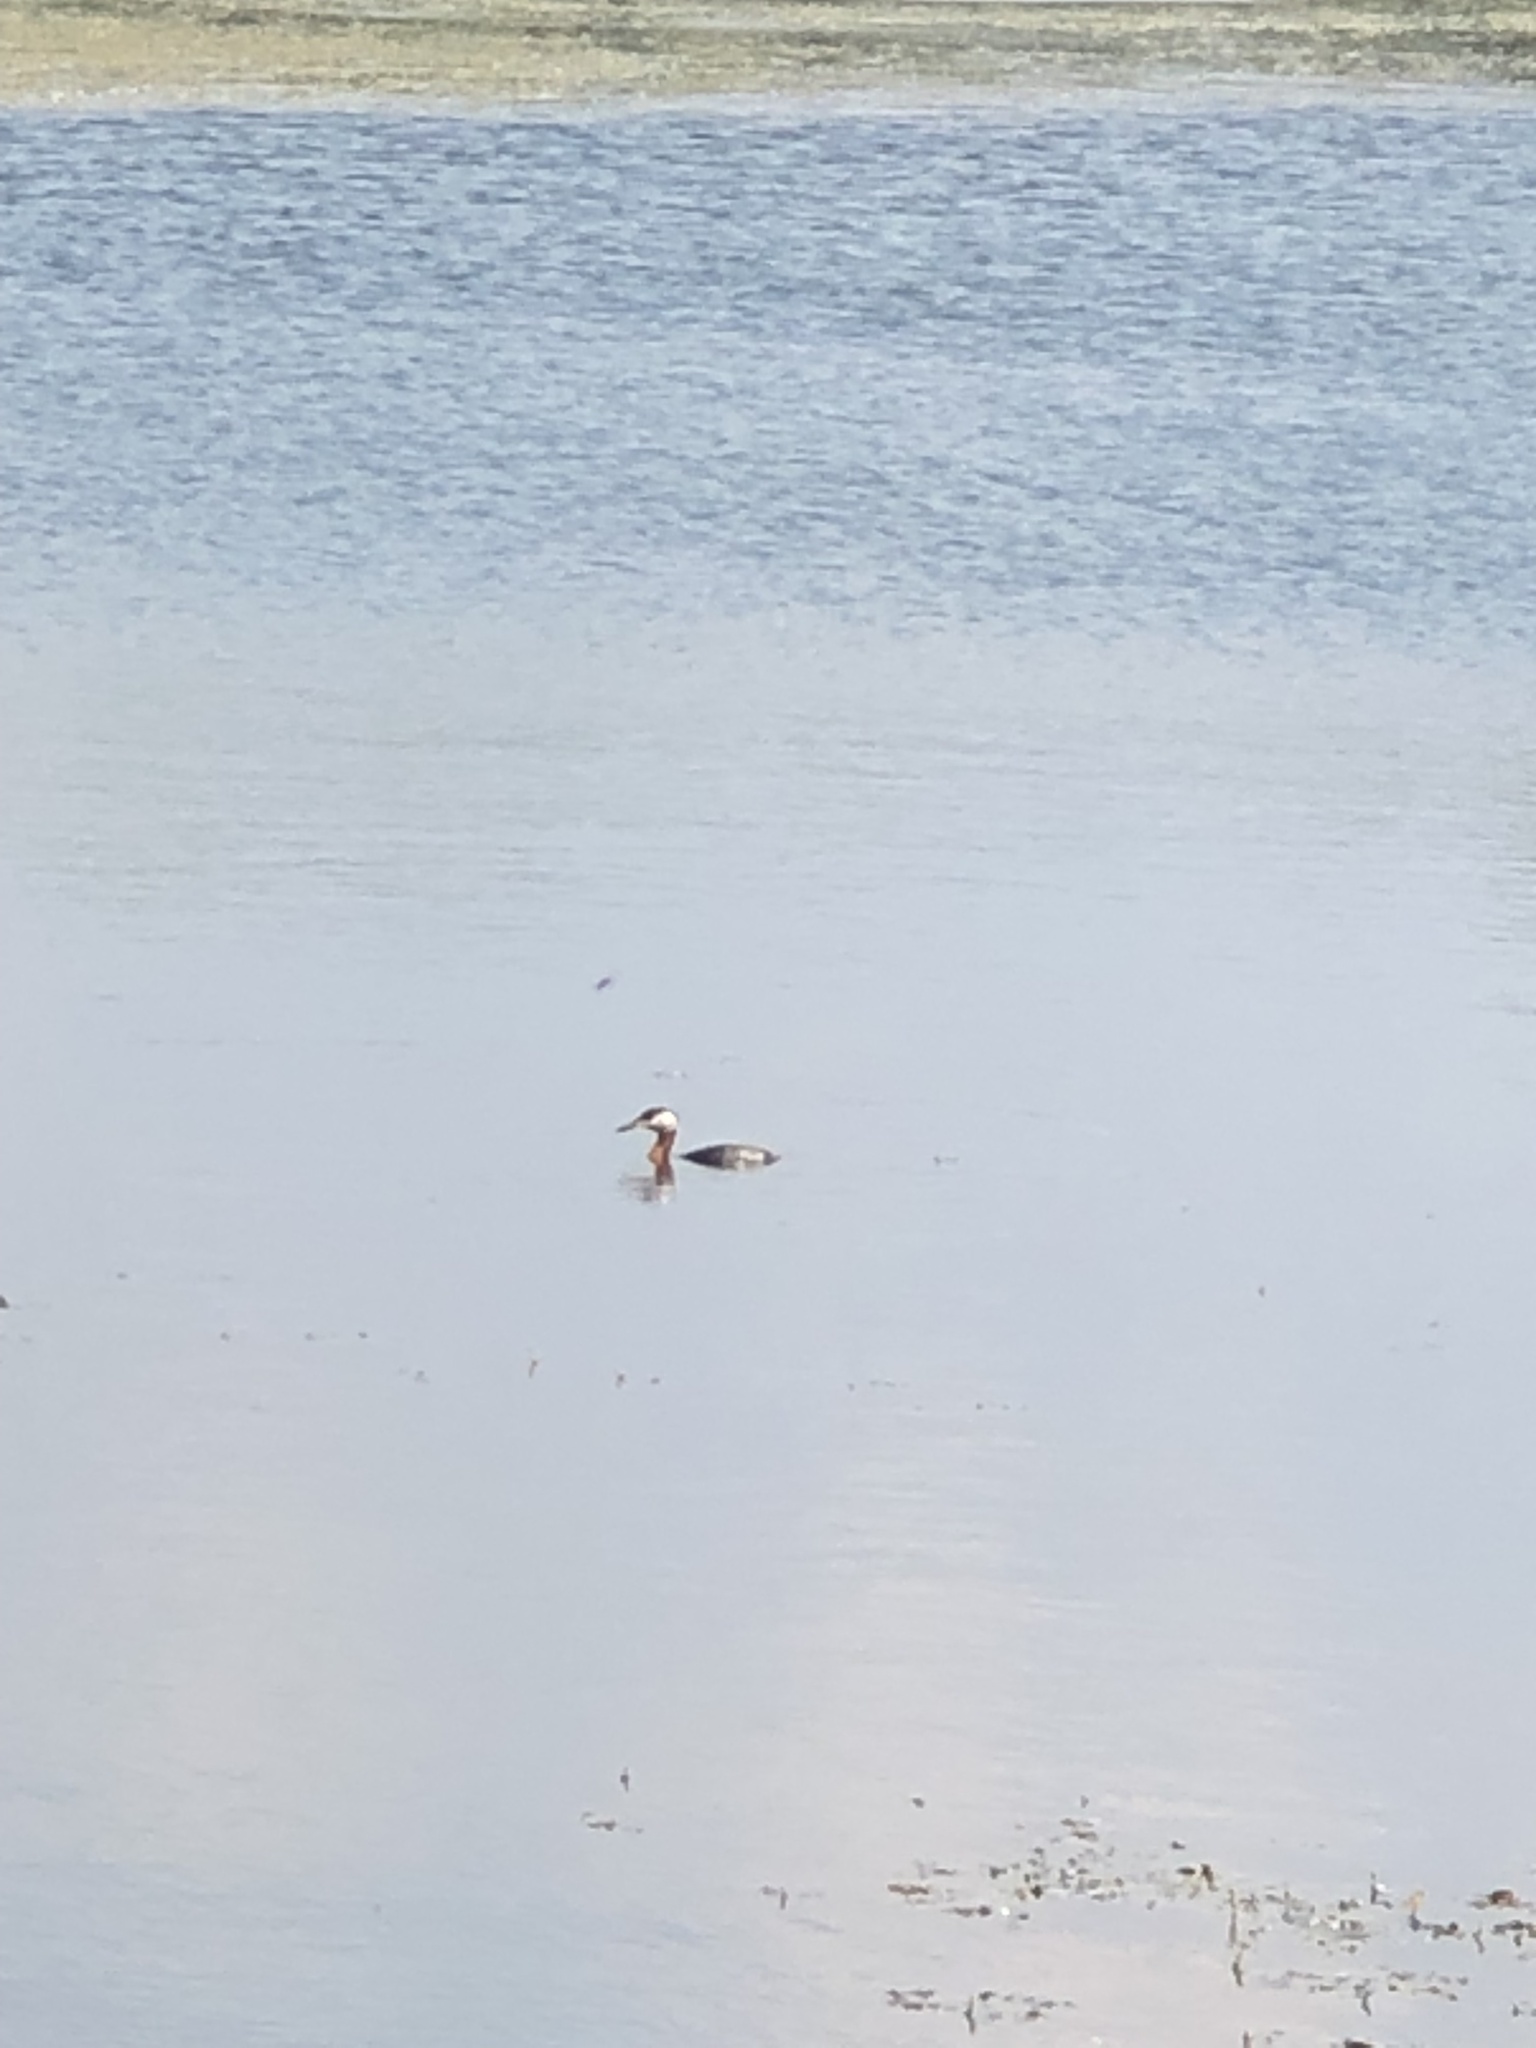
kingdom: Animalia
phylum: Chordata
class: Aves
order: Podicipediformes
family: Podicipedidae
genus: Podiceps
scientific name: Podiceps grisegena
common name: Red-necked grebe
